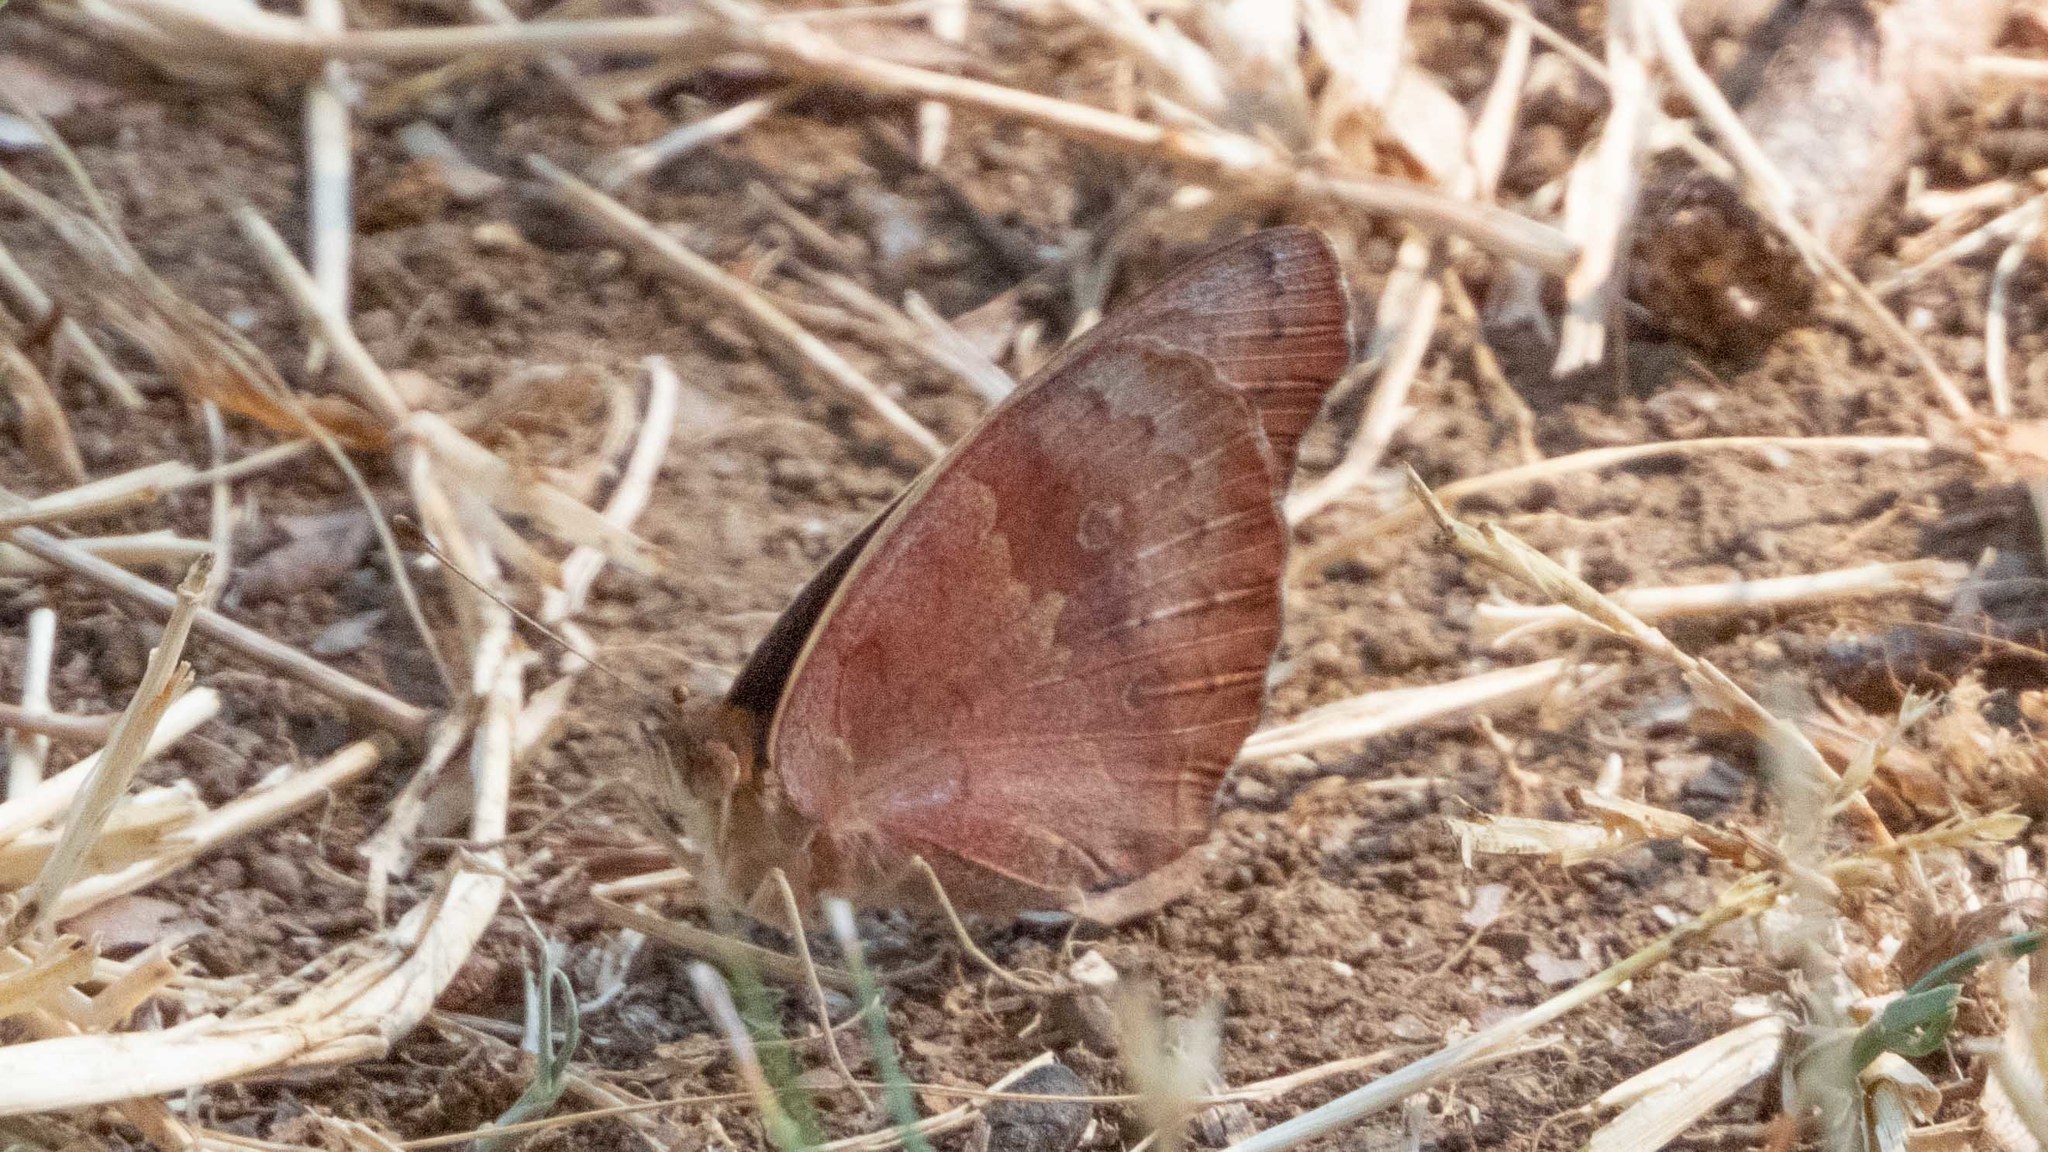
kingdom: Animalia
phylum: Arthropoda
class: Insecta
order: Lepidoptera
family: Nymphalidae
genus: Junonia
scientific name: Junonia coenia
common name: Common buckeye
